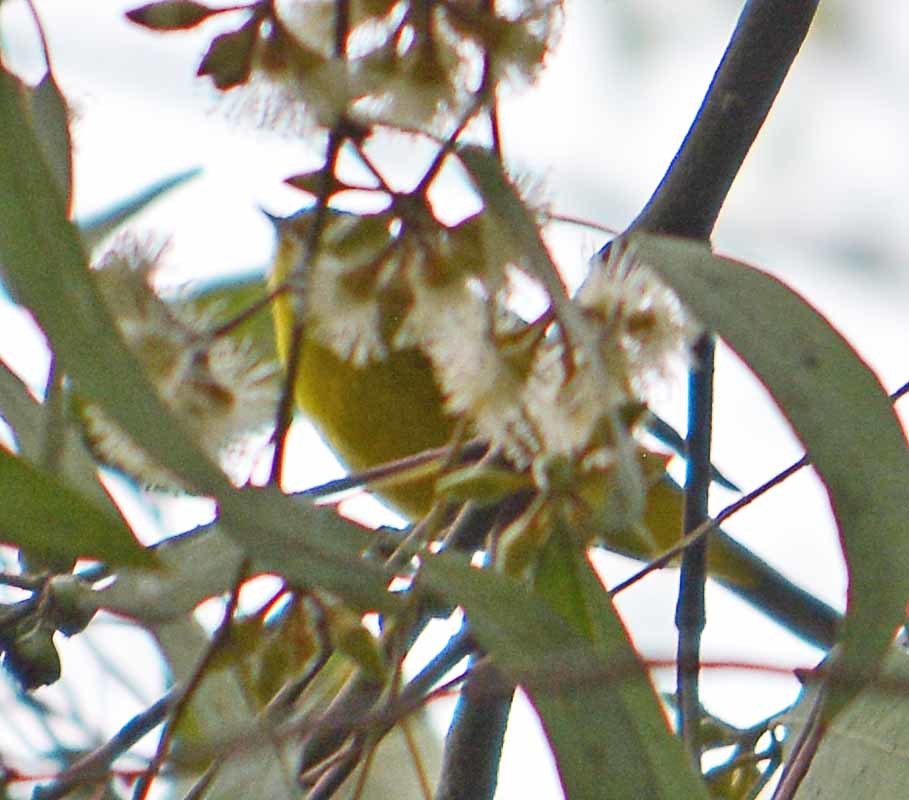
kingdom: Animalia
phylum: Chordata
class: Aves
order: Passeriformes
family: Parulidae
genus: Cardellina
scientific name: Cardellina pusilla
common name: Wilson's warbler
